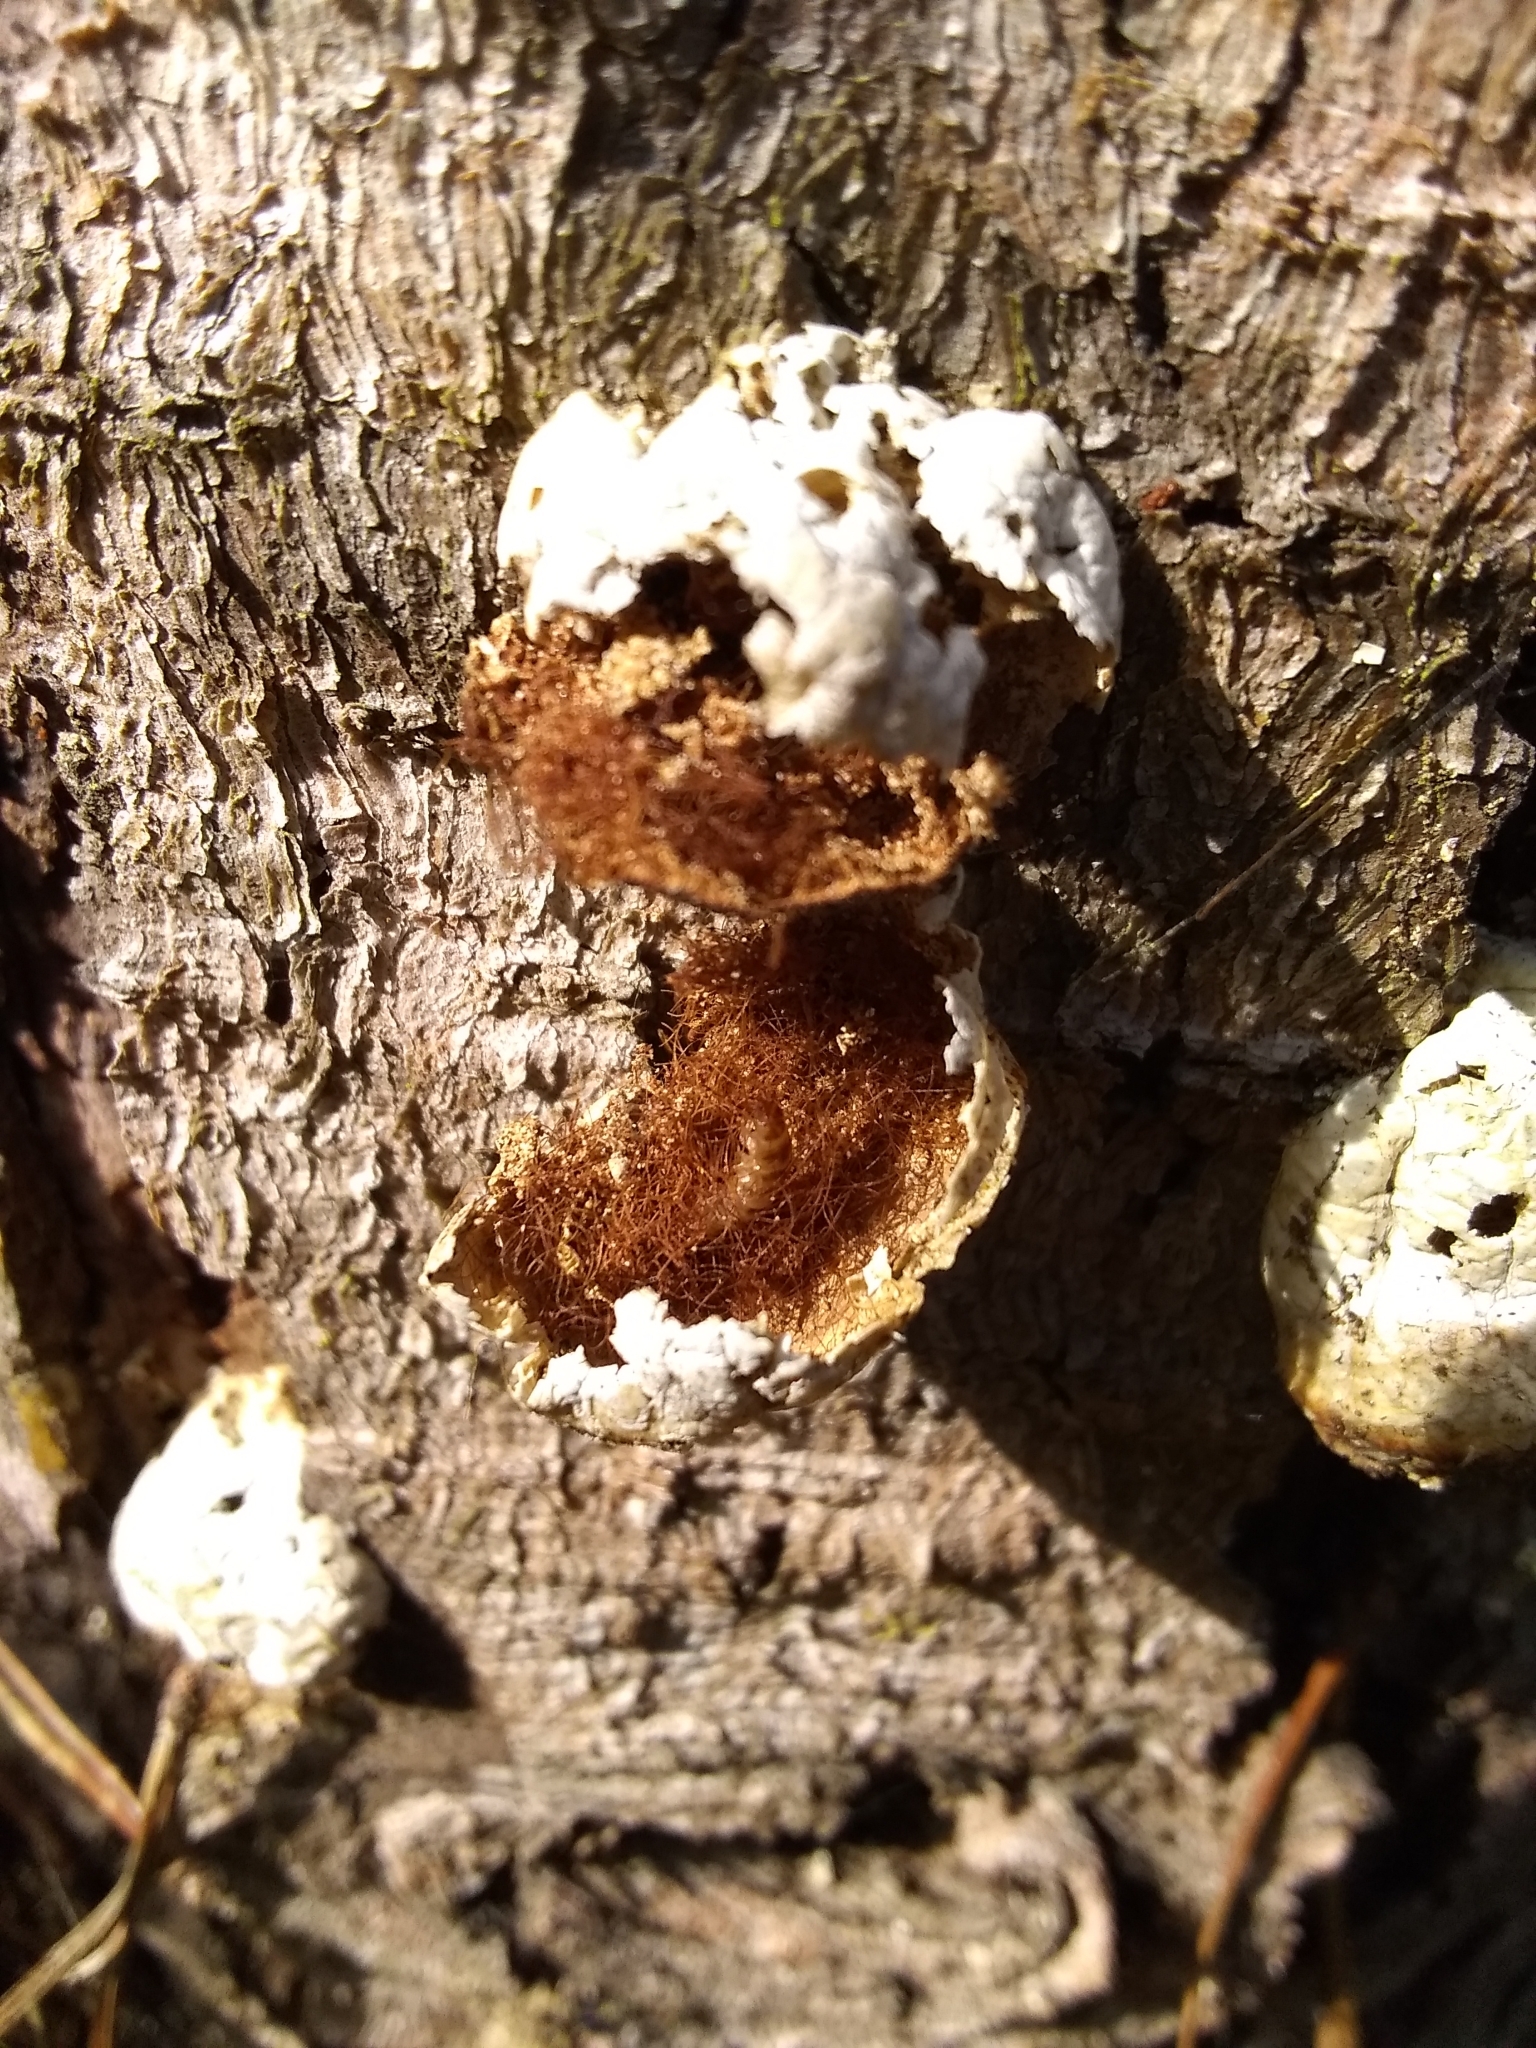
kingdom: Fungi
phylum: Basidiomycota
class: Agaricomycetes
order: Polyporales
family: Polyporaceae
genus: Cryptoporus
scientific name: Cryptoporus volvatus
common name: Veiled polypore
